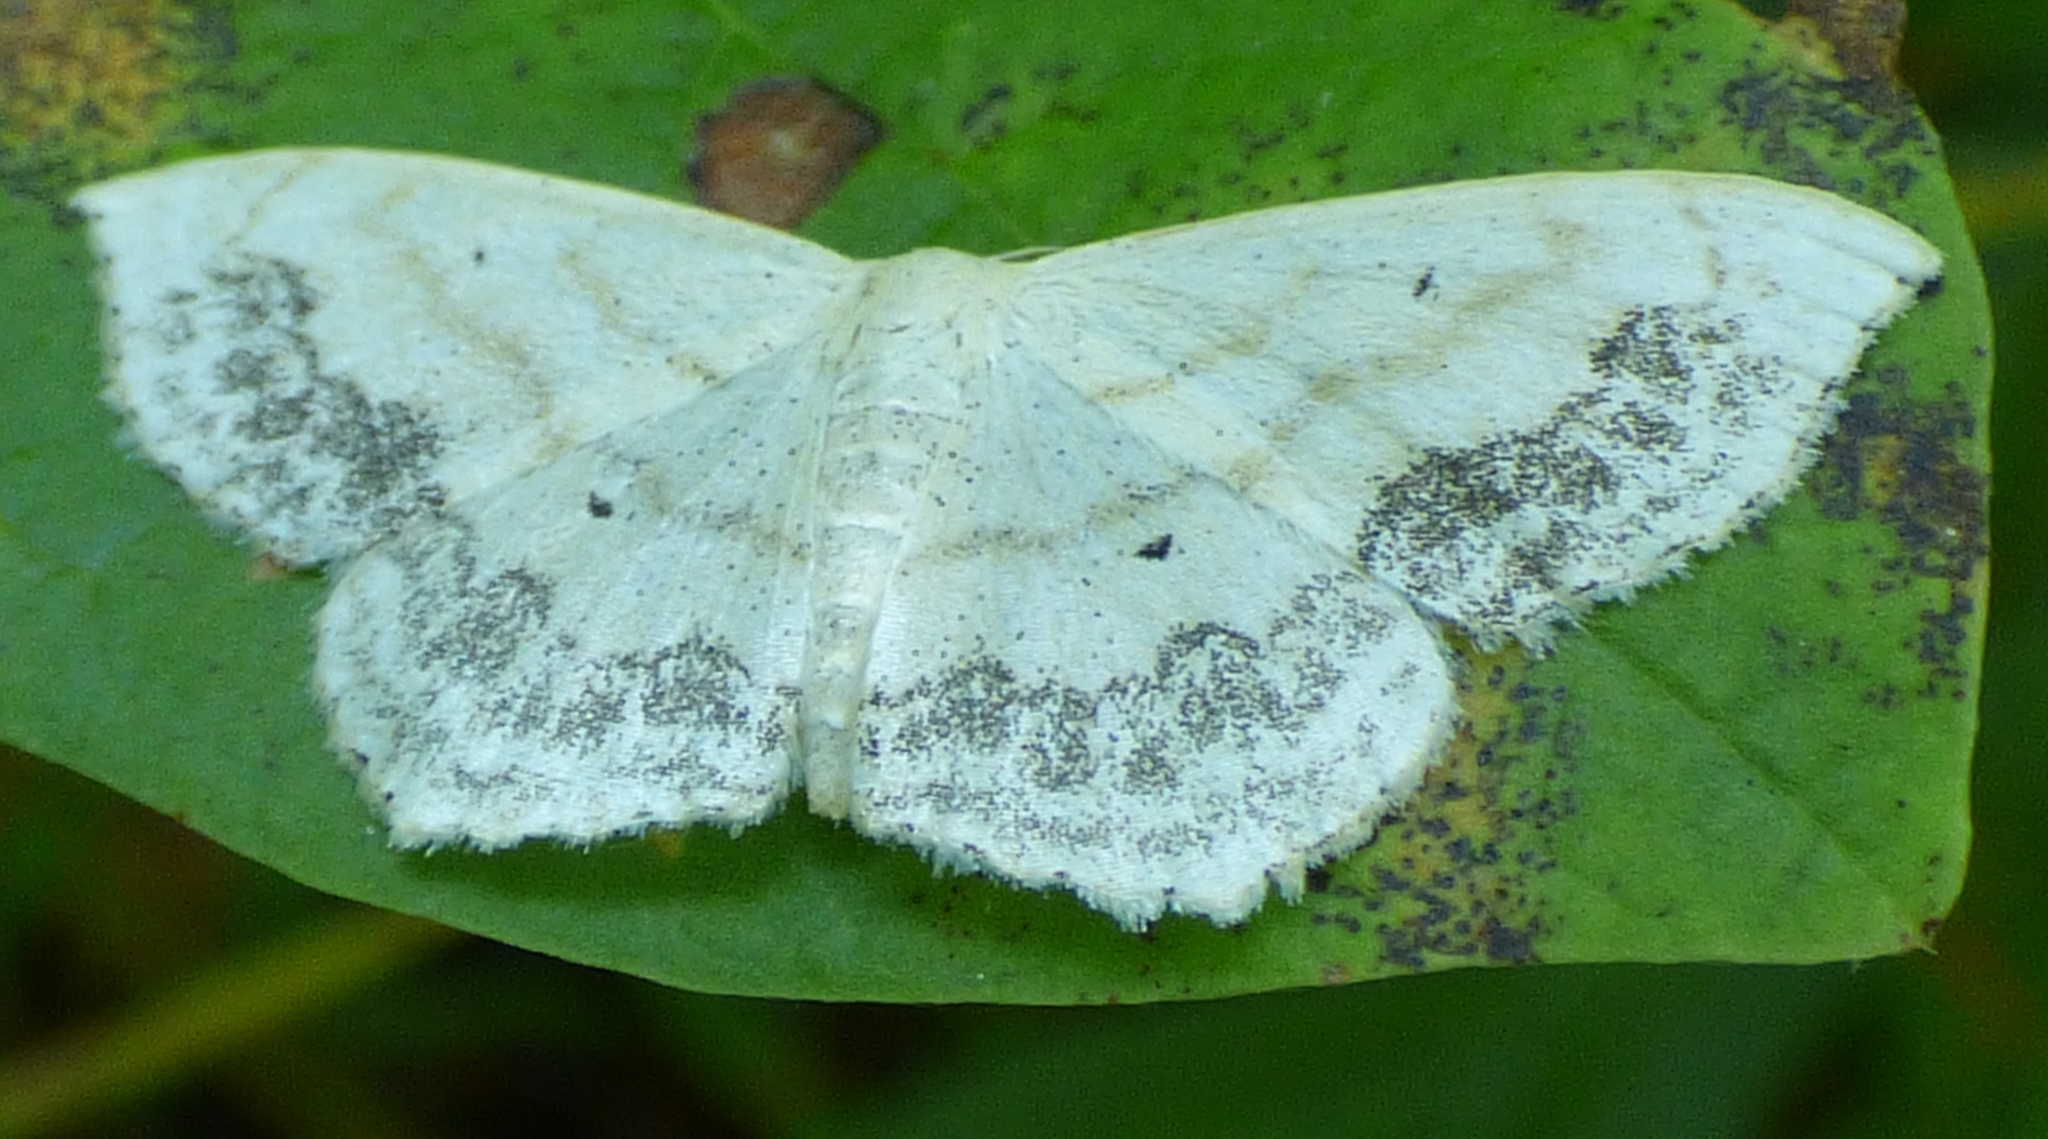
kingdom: Animalia
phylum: Arthropoda
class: Insecta
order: Lepidoptera
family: Geometridae
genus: Scopula
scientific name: Scopula limboundata
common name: Large lace border
